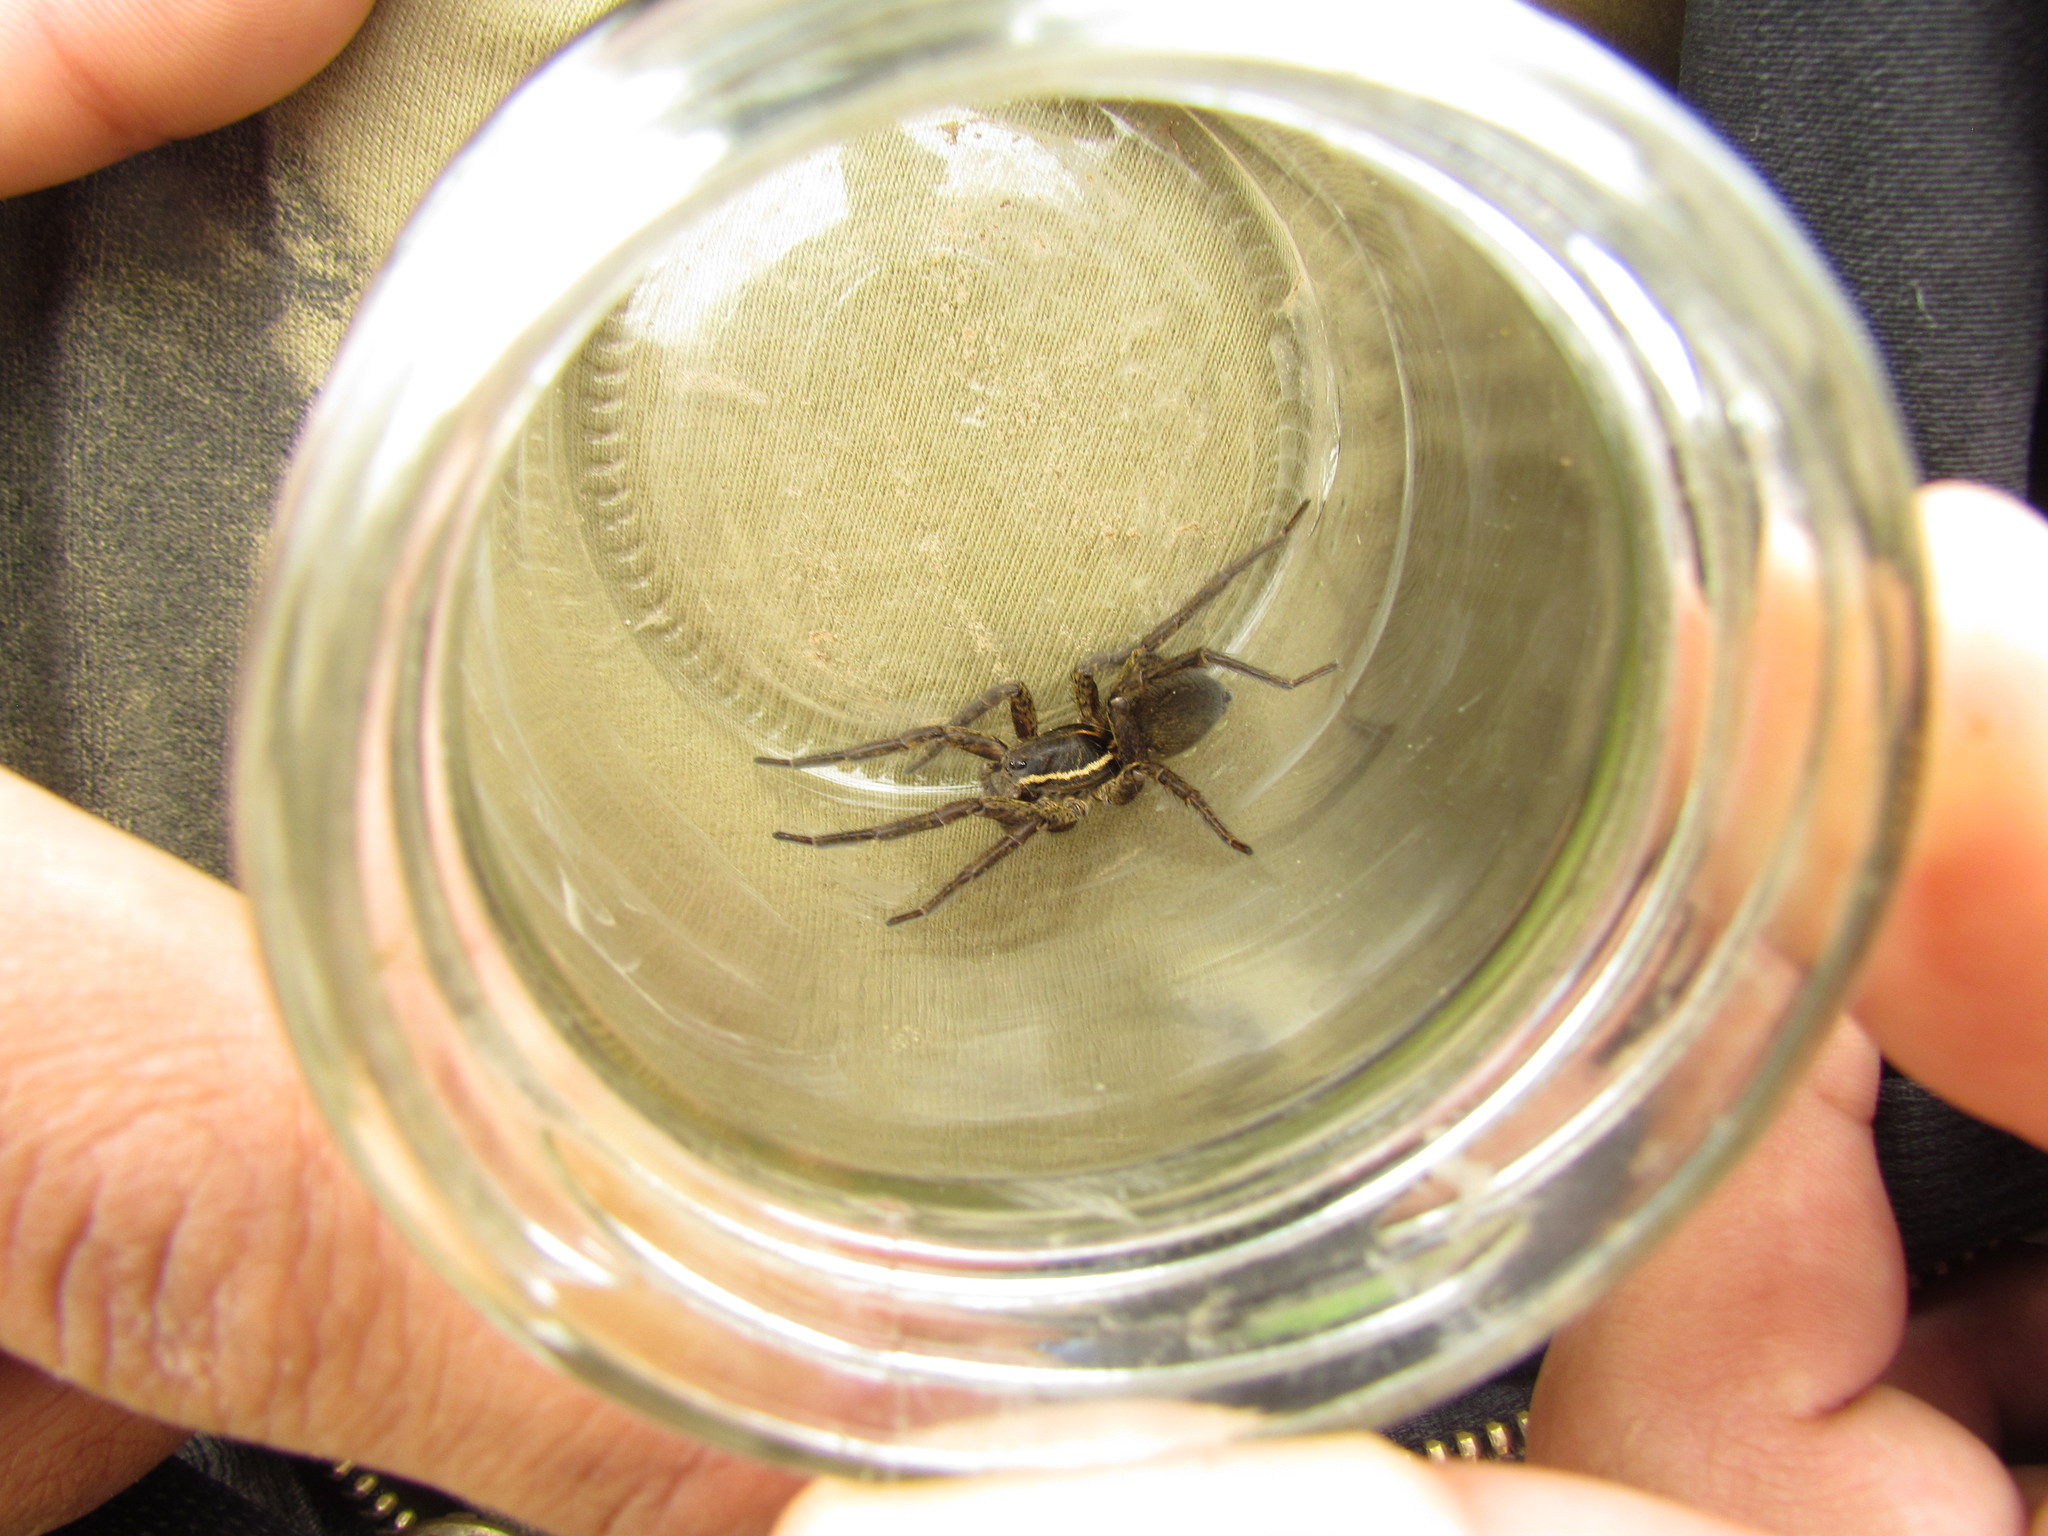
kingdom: Animalia
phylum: Arthropoda
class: Arachnida
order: Araneae
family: Lycosidae
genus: Aglaoctenus
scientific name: Aglaoctenus oblongus
